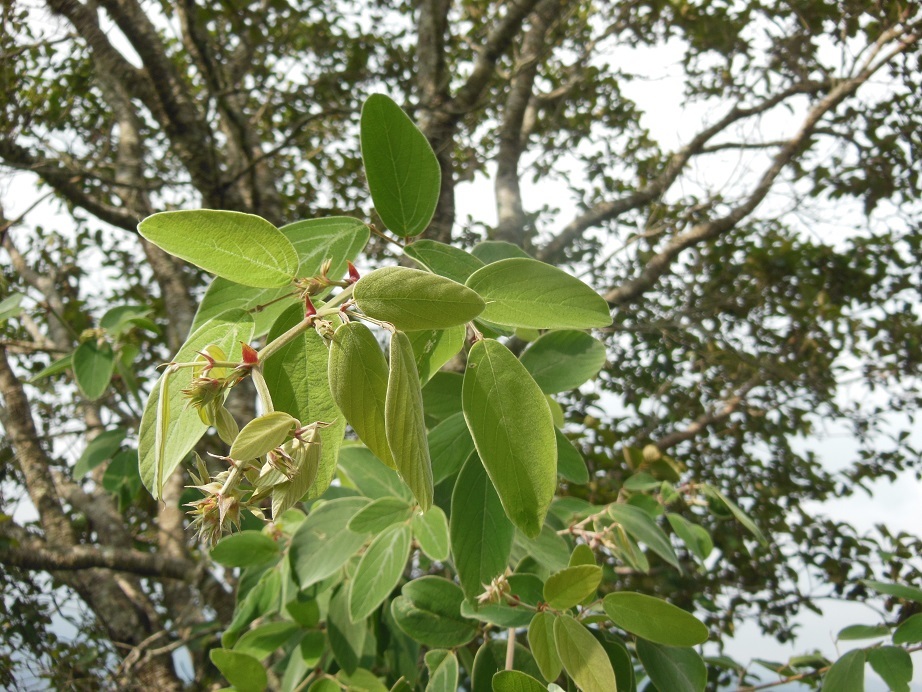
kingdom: Plantae
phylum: Tracheophyta
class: Magnoliopsida
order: Fabales
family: Fabaceae
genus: Desmodium
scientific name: Desmodium amplistipulaceum
